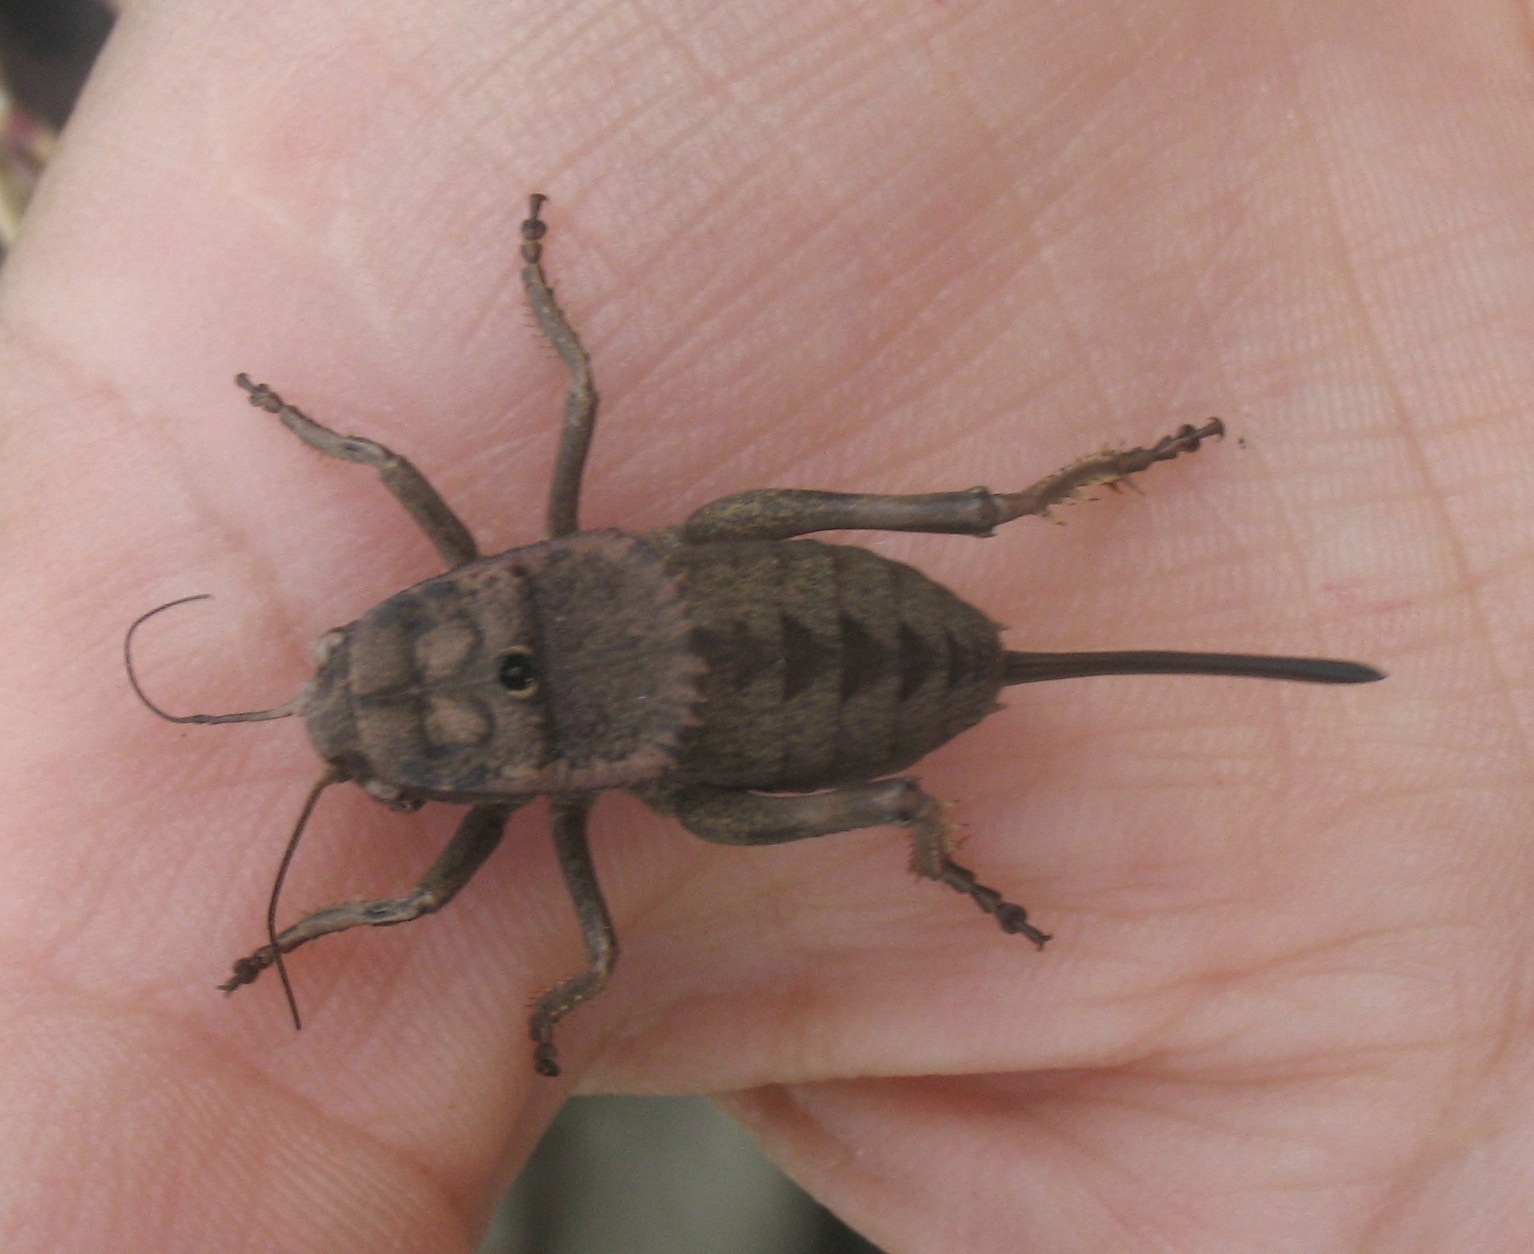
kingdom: Animalia
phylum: Arthropoda
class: Insecta
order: Orthoptera
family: Tettigoniidae
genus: Onconotus
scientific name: Onconotus servillei
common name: Southern barbed-wire bush-cricket
